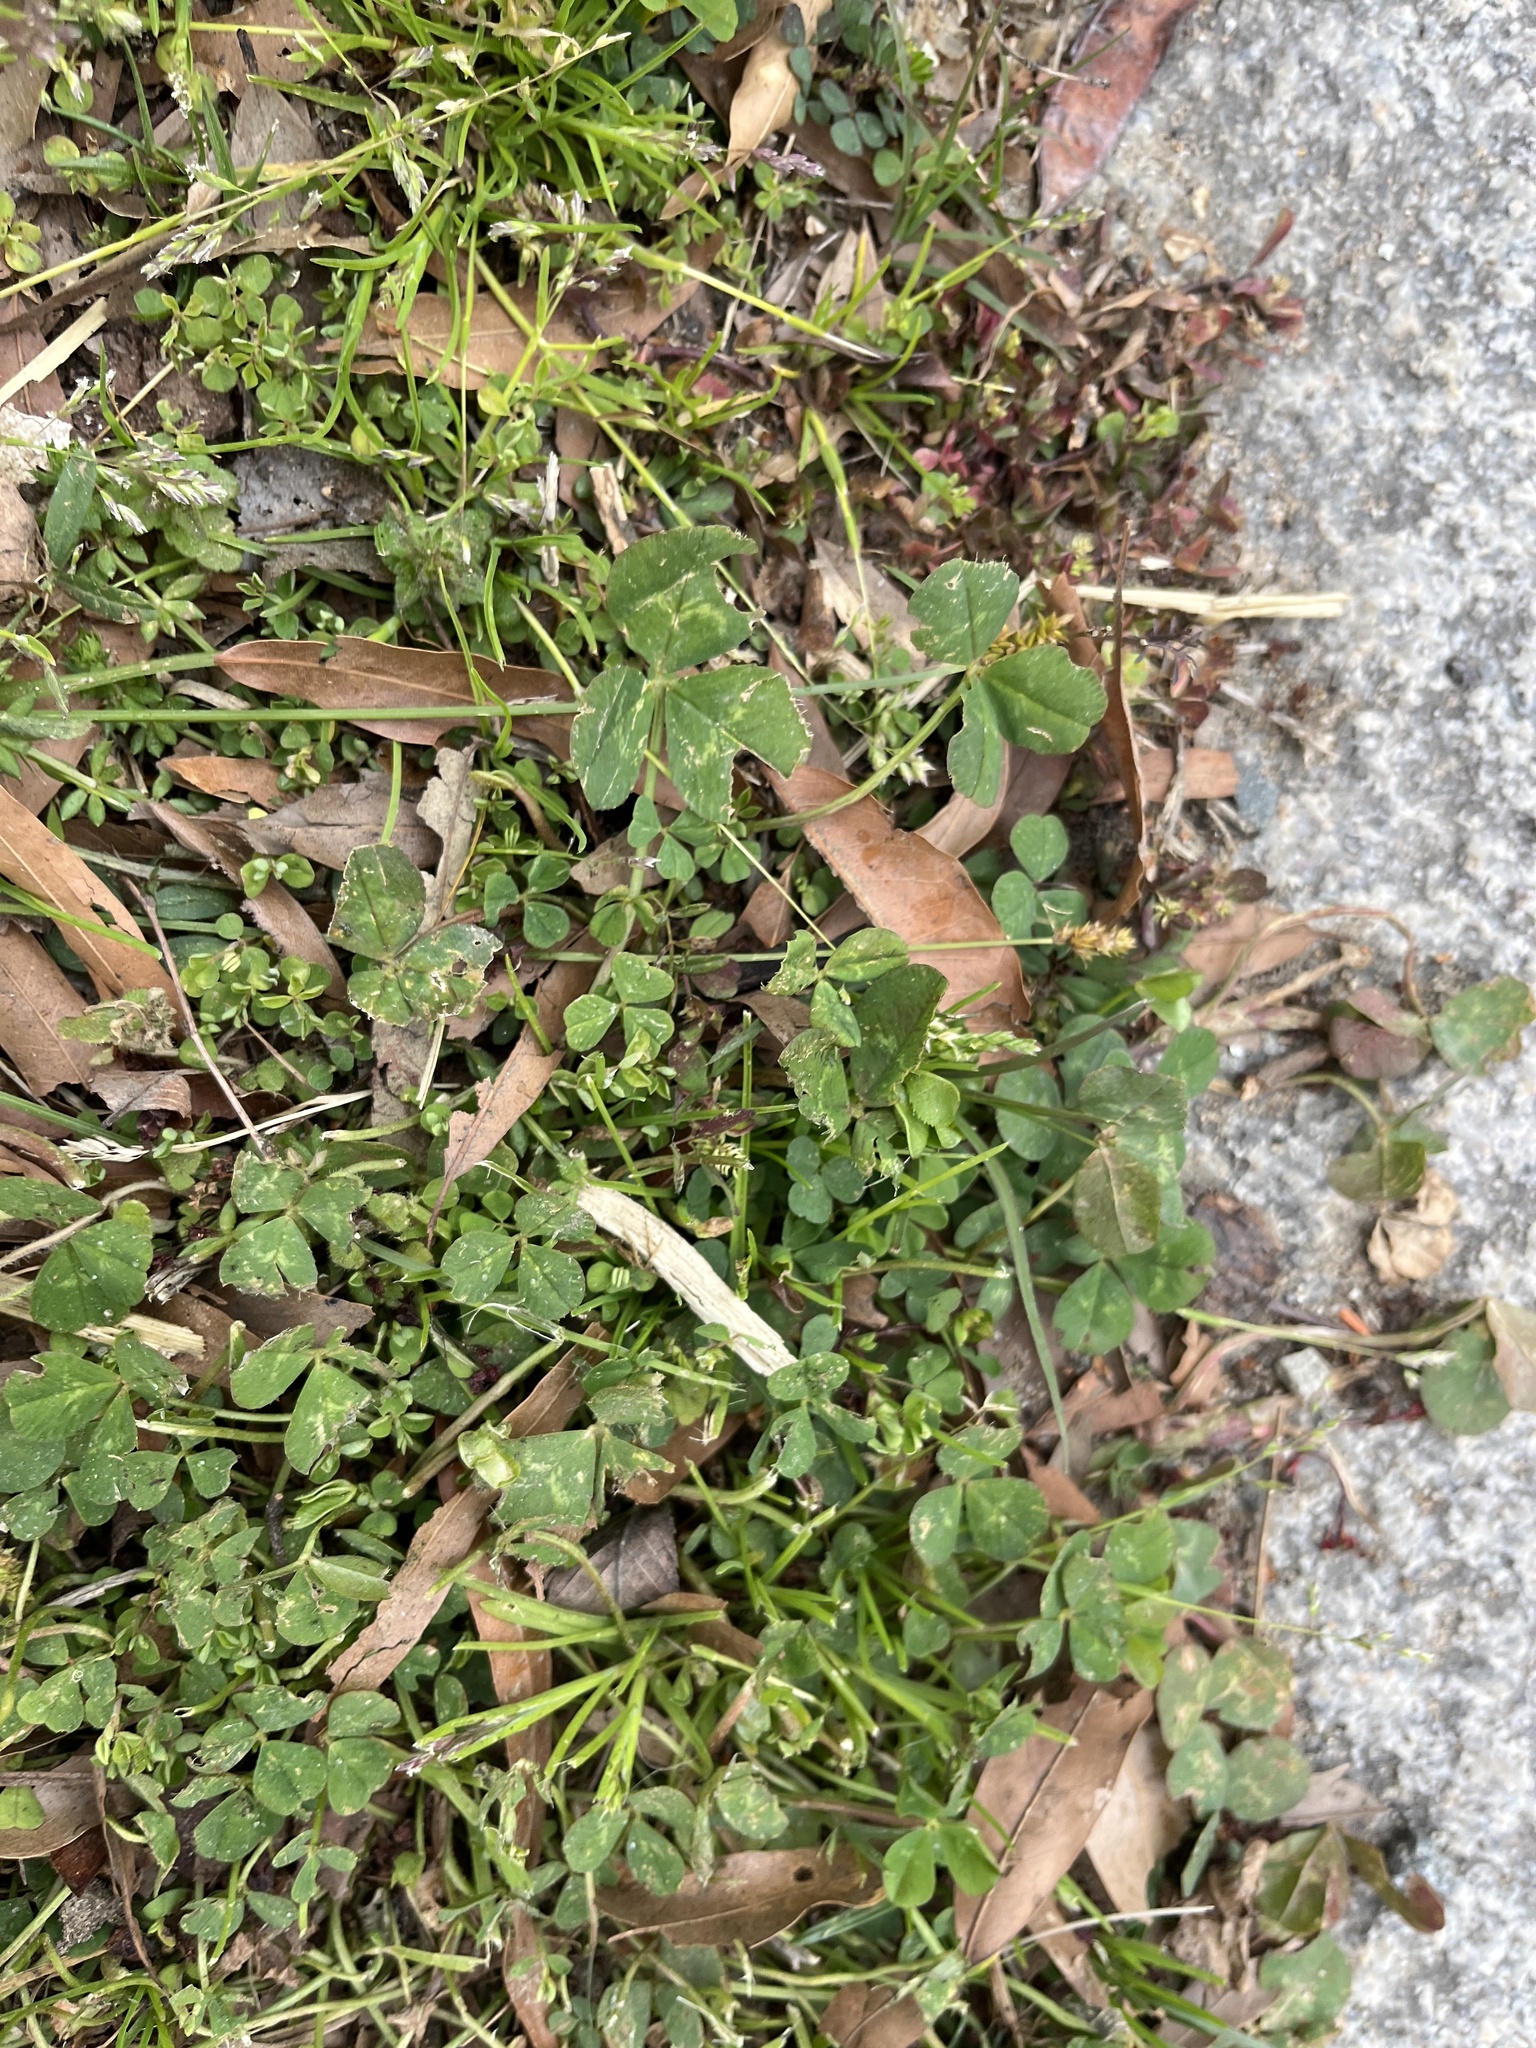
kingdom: Plantae
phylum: Tracheophyta
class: Magnoliopsida
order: Fabales
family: Fabaceae
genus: Trifolium
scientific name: Trifolium repens
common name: White clover
